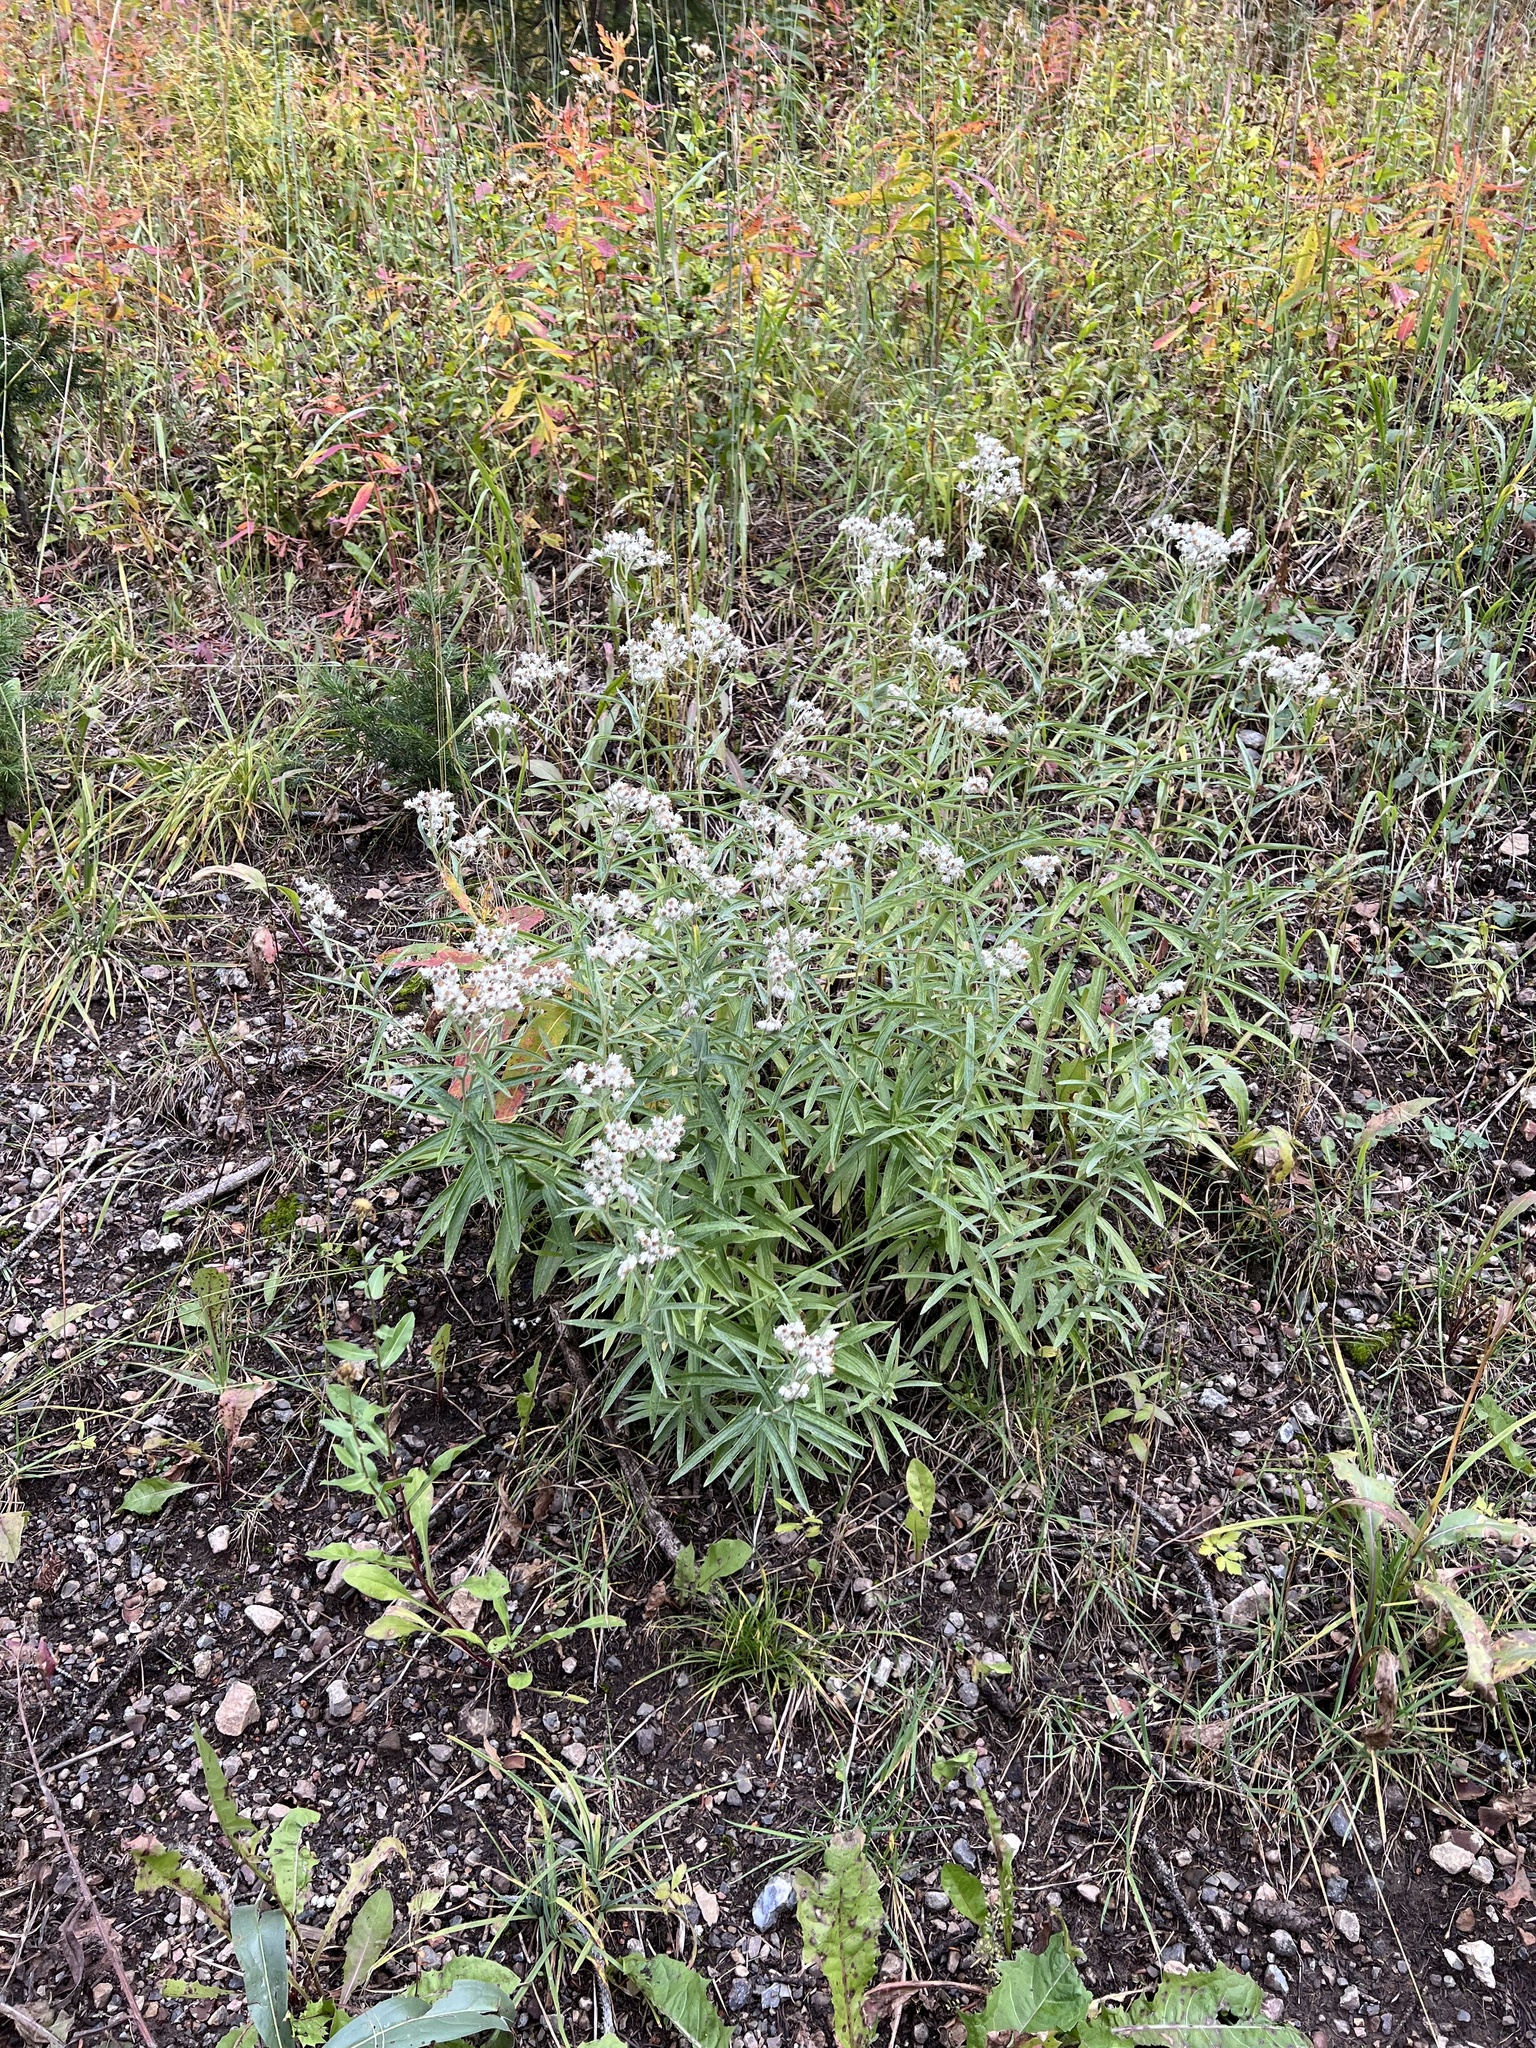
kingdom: Plantae
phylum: Tracheophyta
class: Magnoliopsida
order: Asterales
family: Asteraceae
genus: Anaphalis
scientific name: Anaphalis margaritacea
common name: Pearly everlasting
